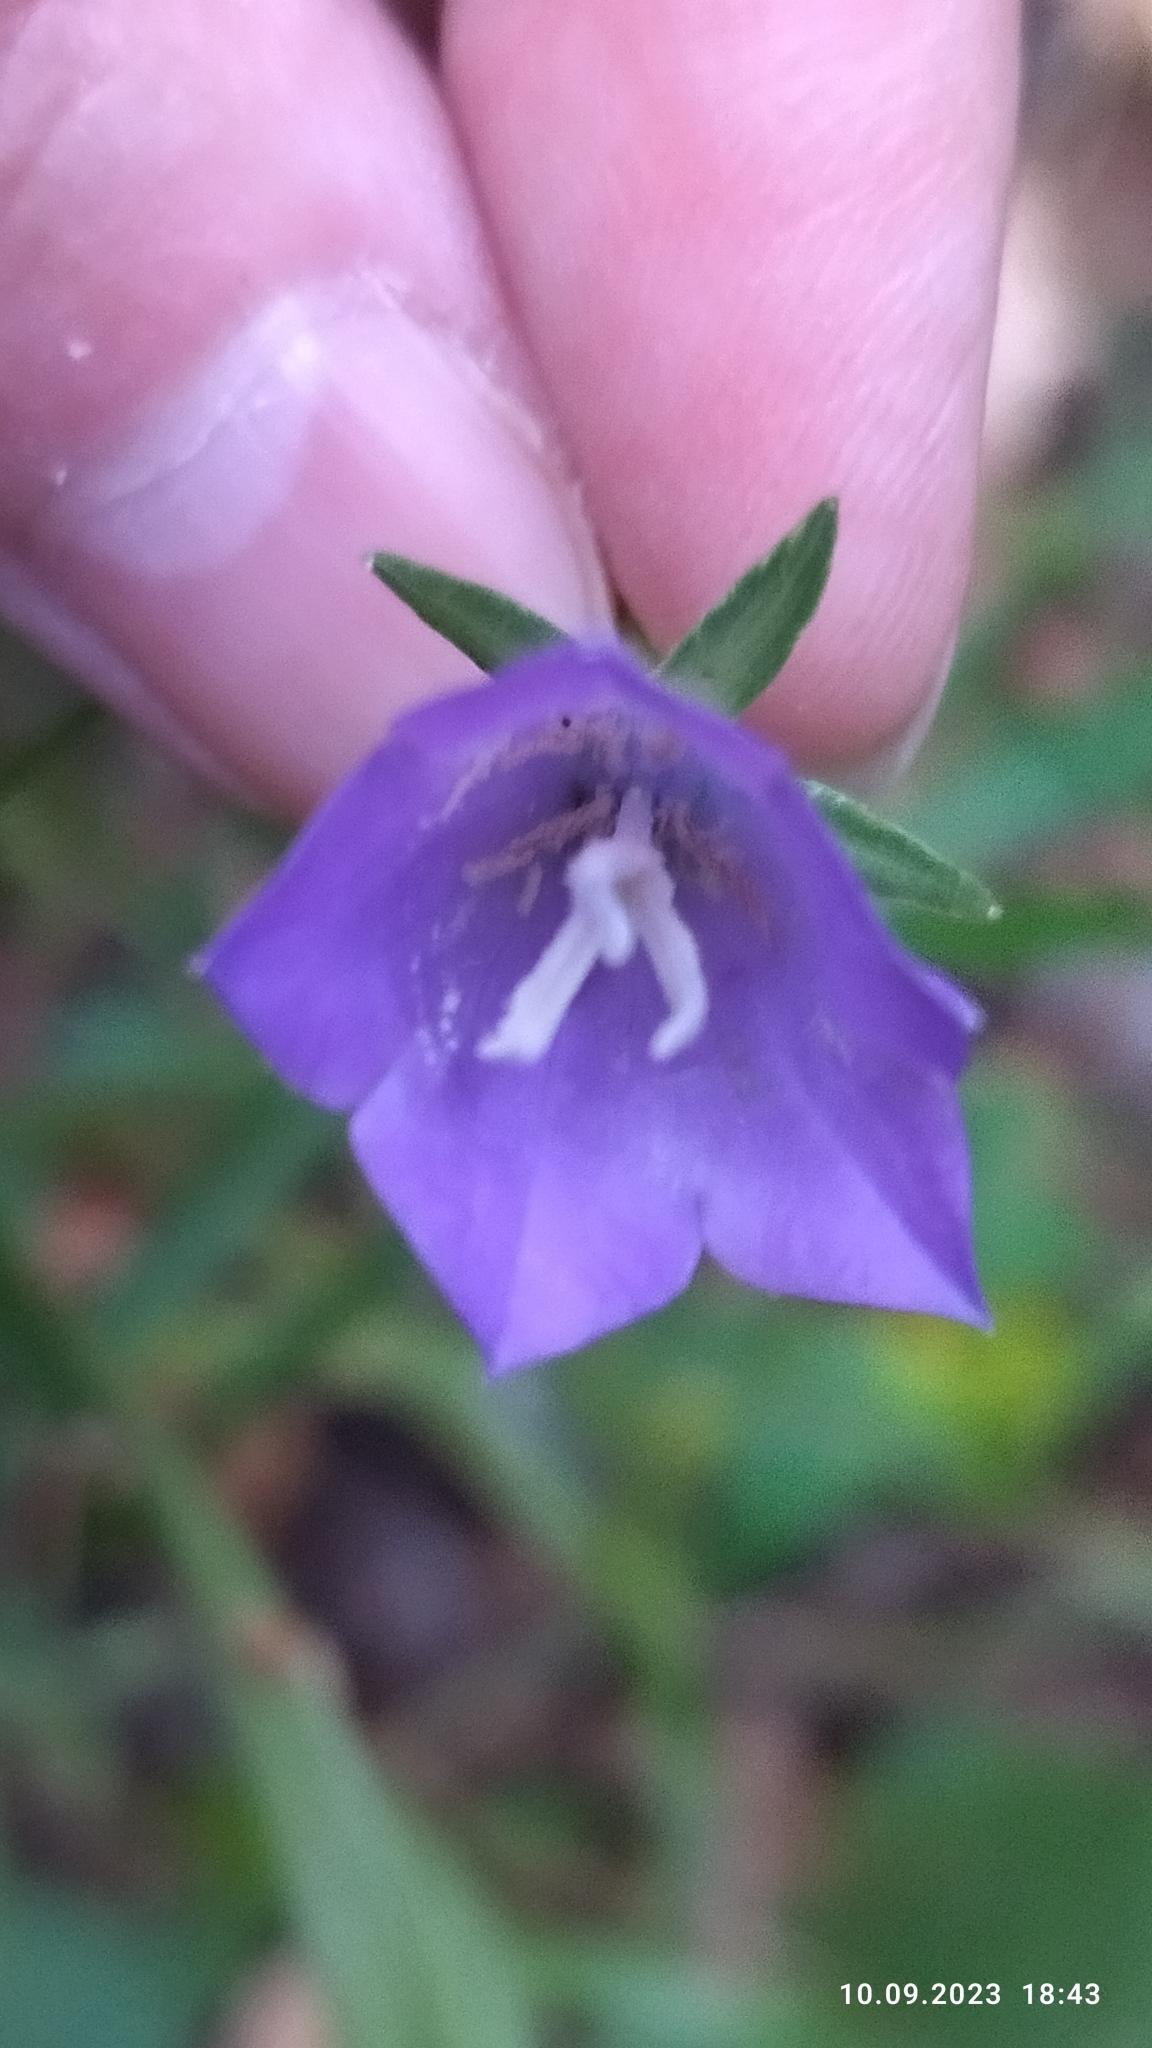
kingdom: Plantae
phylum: Tracheophyta
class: Magnoliopsida
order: Asterales
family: Campanulaceae
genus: Campanula
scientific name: Campanula persicifolia
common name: Peach-leaved bellflower
